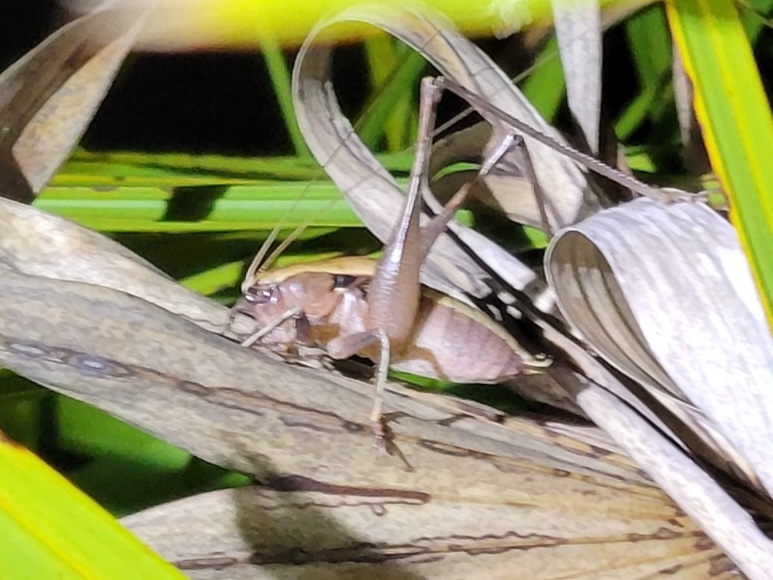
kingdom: Animalia
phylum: Arthropoda
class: Insecta
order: Orthoptera
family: Tettigoniidae
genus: Atlanticus
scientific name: Atlanticus gibbosus
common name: Robust shield-bearer
